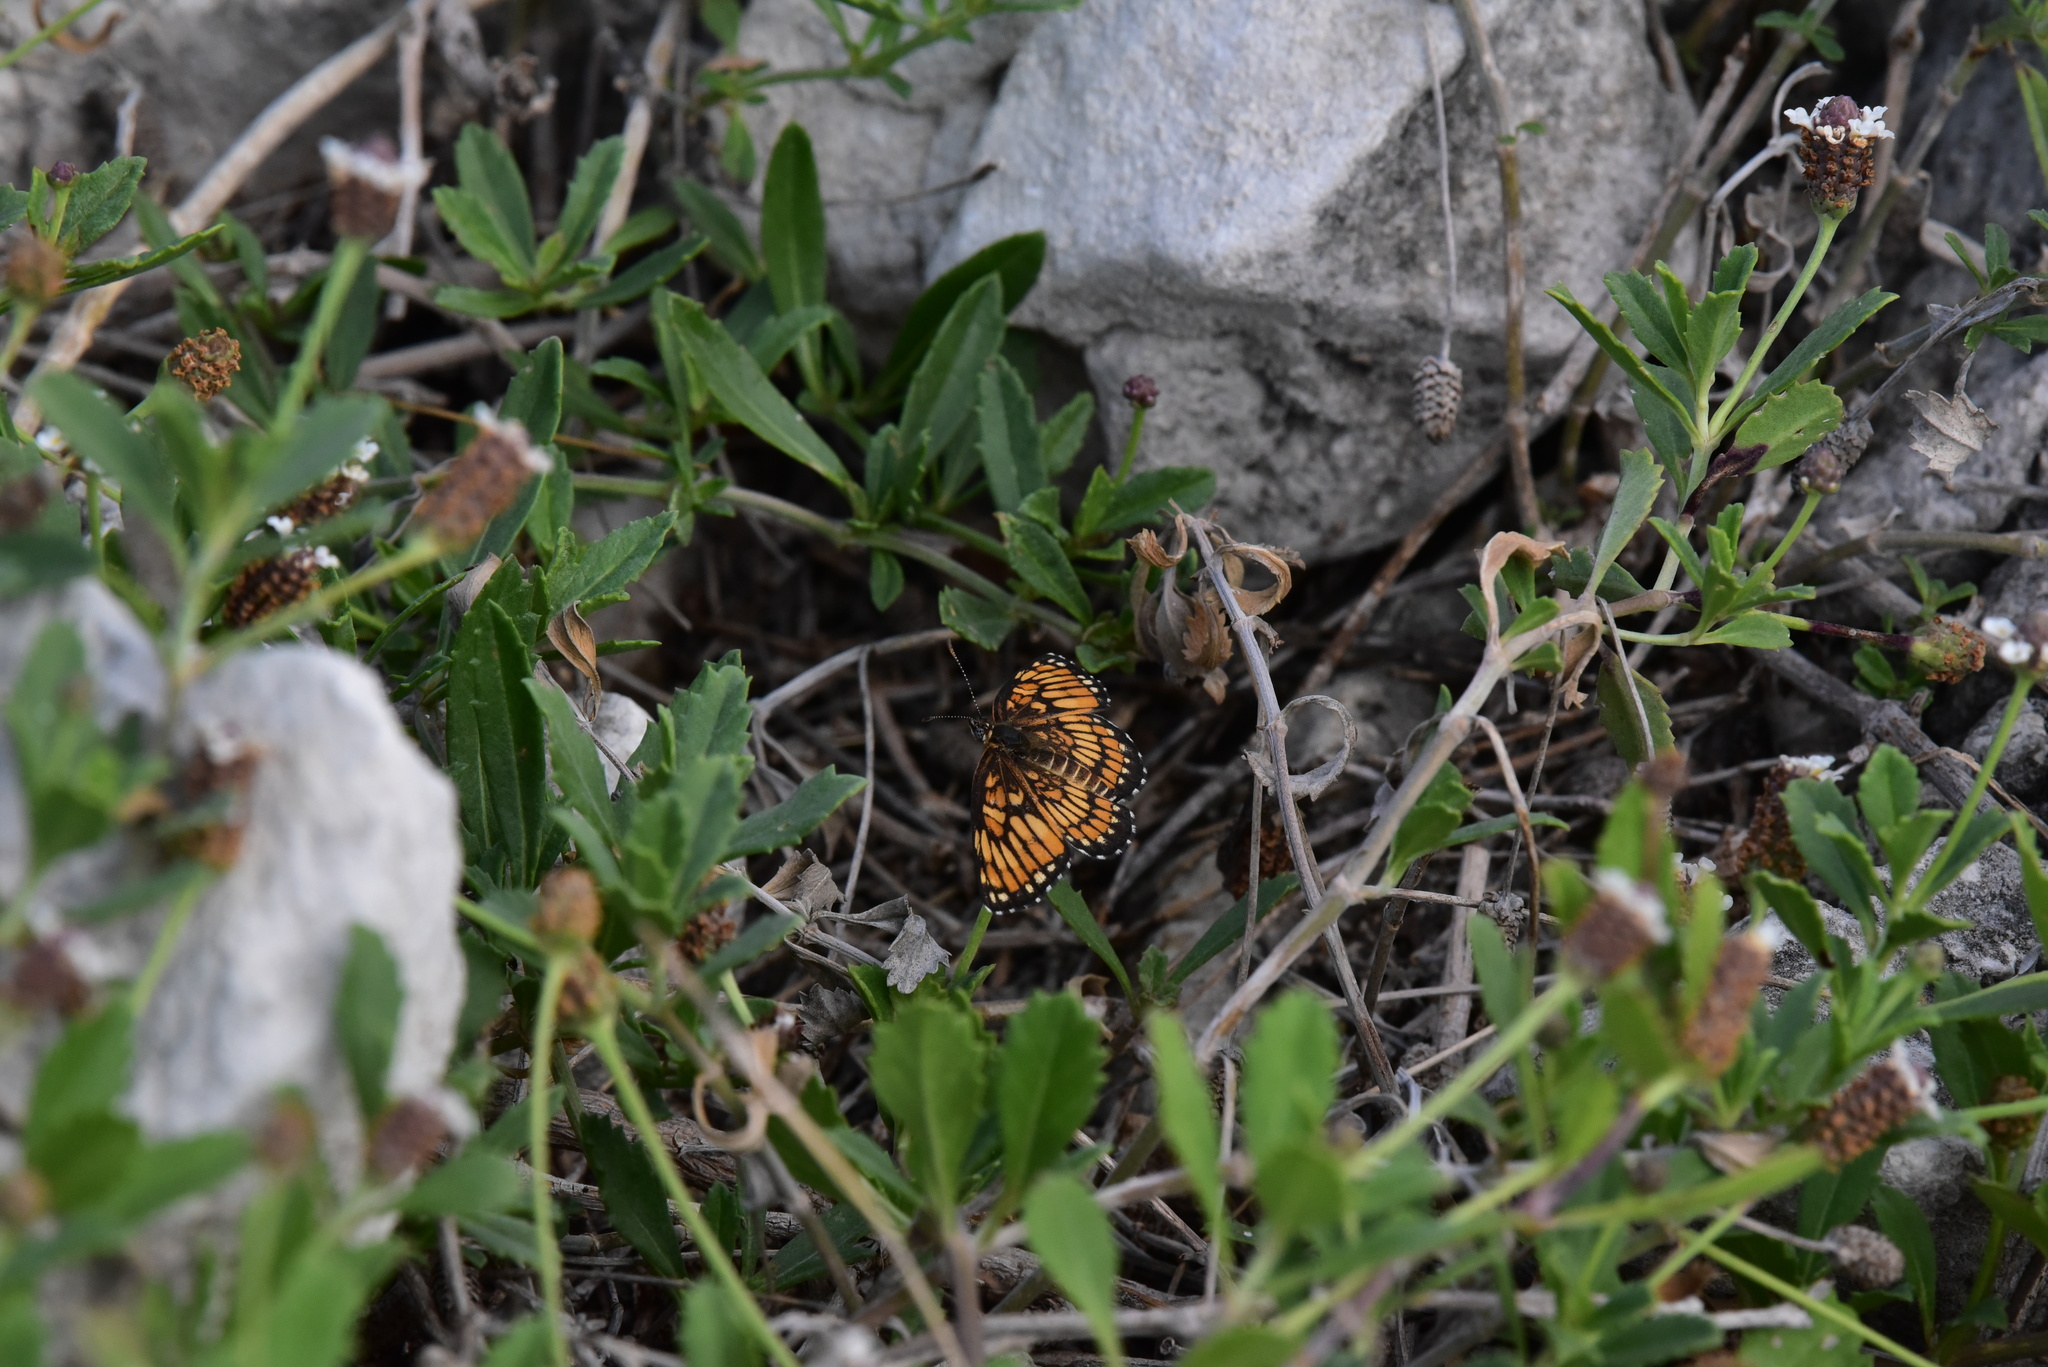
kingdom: Animalia
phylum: Arthropoda
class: Insecta
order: Lepidoptera
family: Nymphalidae
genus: Thessalia
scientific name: Thessalia theona
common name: Nymphalid moth
